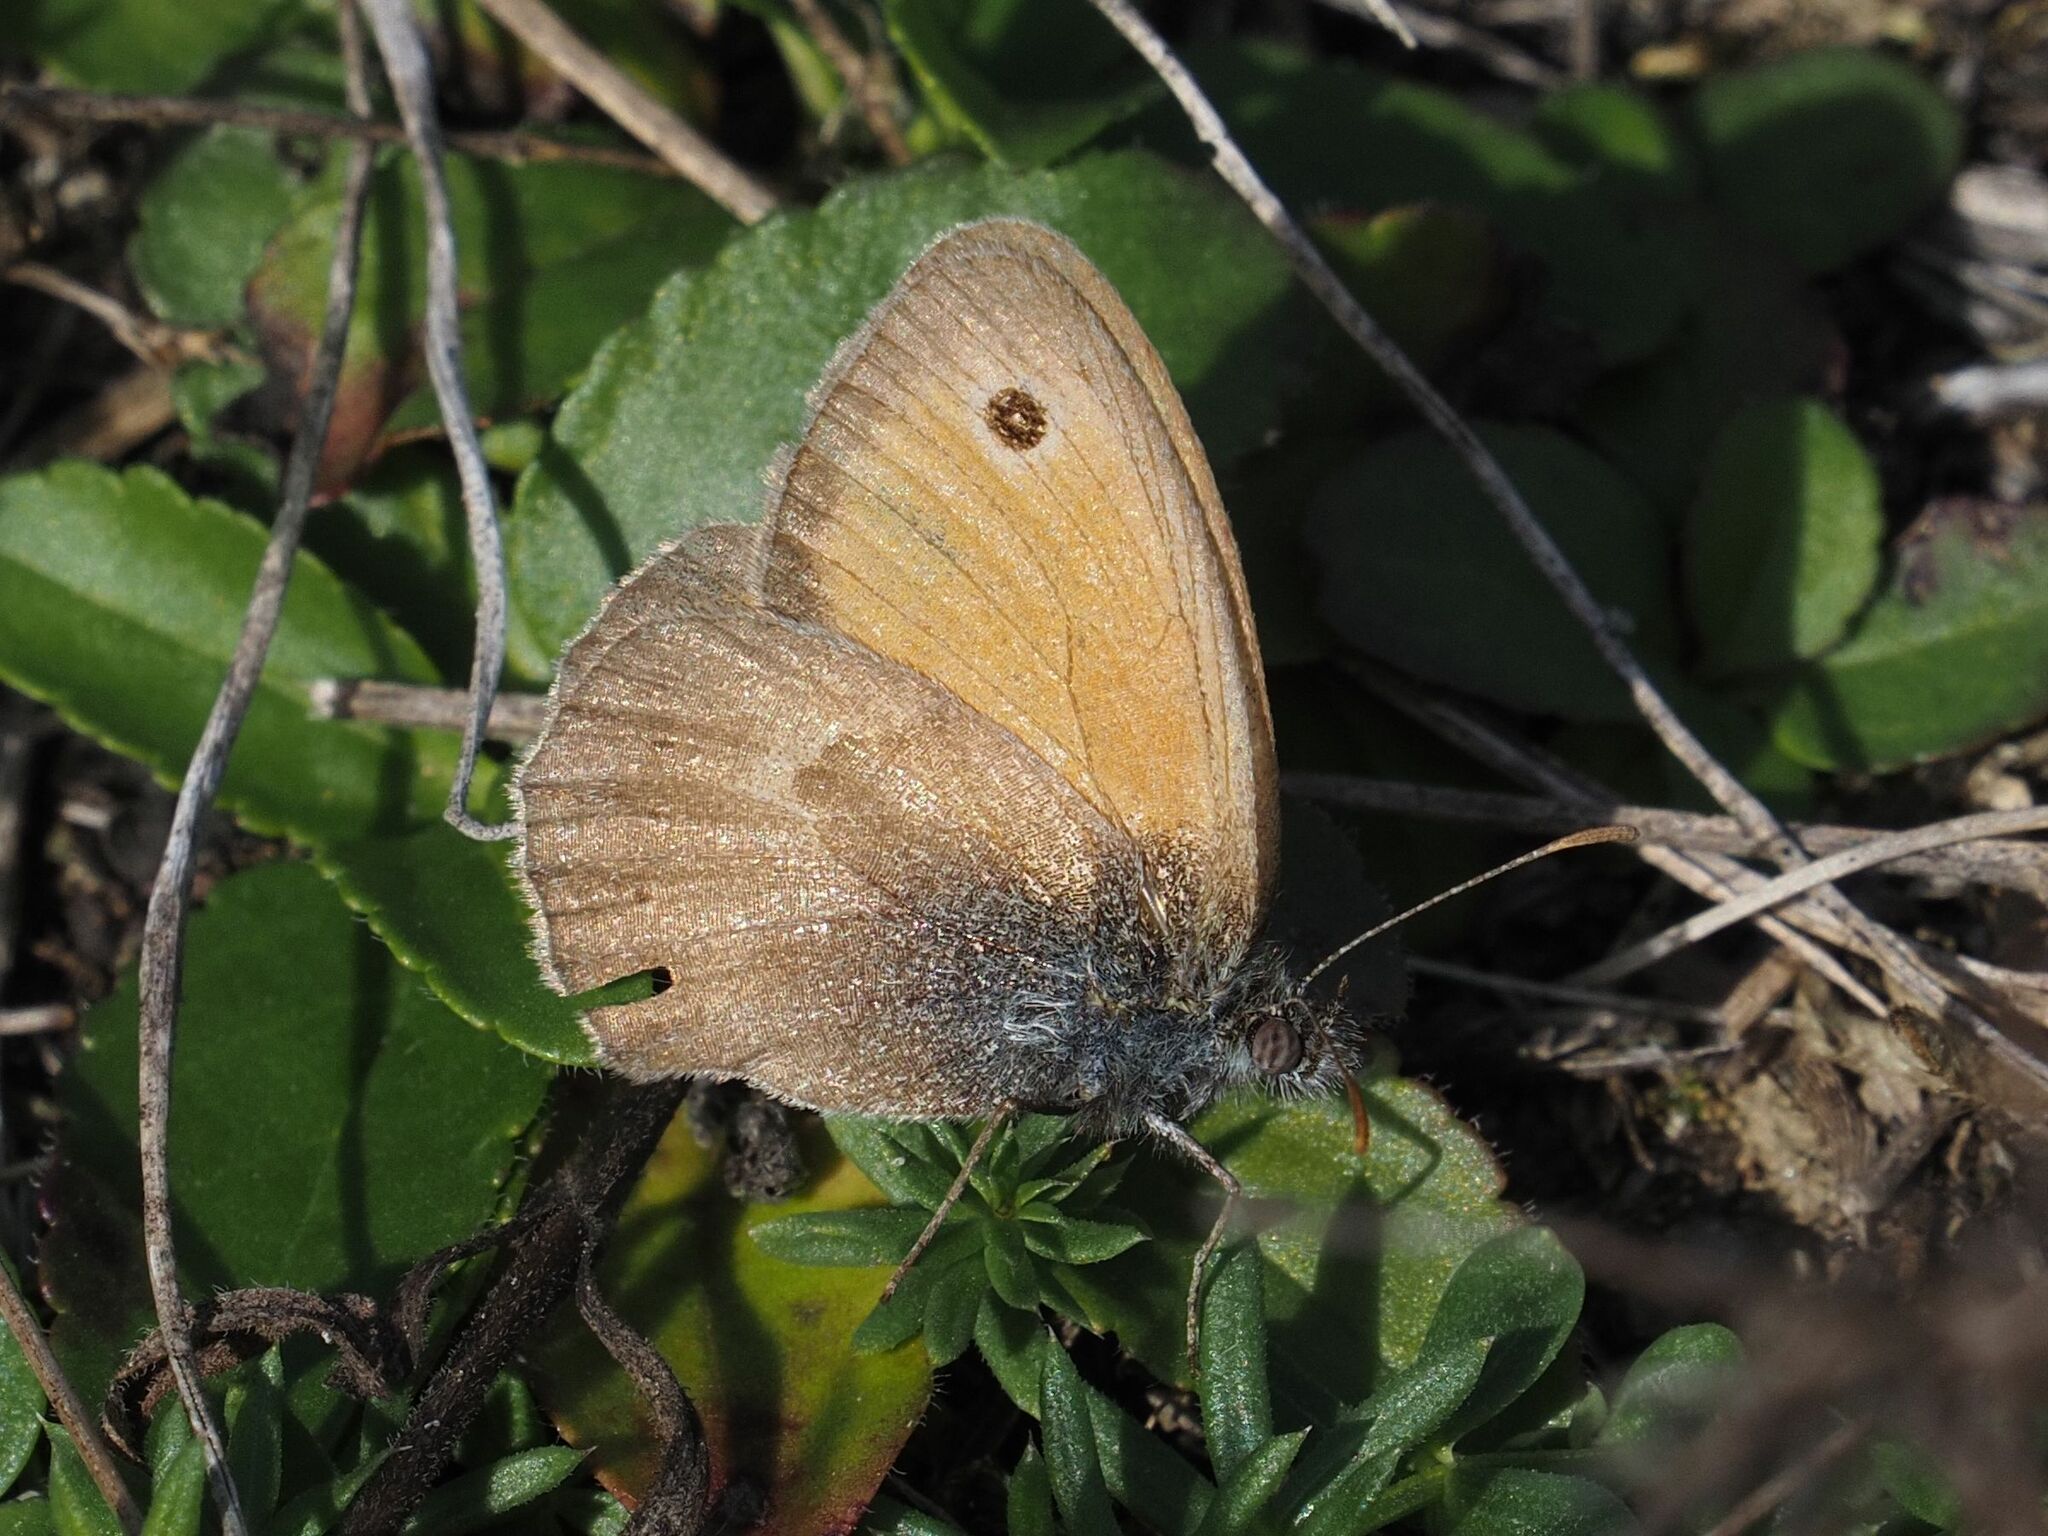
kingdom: Animalia
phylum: Arthropoda
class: Insecta
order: Lepidoptera
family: Nymphalidae
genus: Coenonympha
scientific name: Coenonympha pamphilus
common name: Small heath
